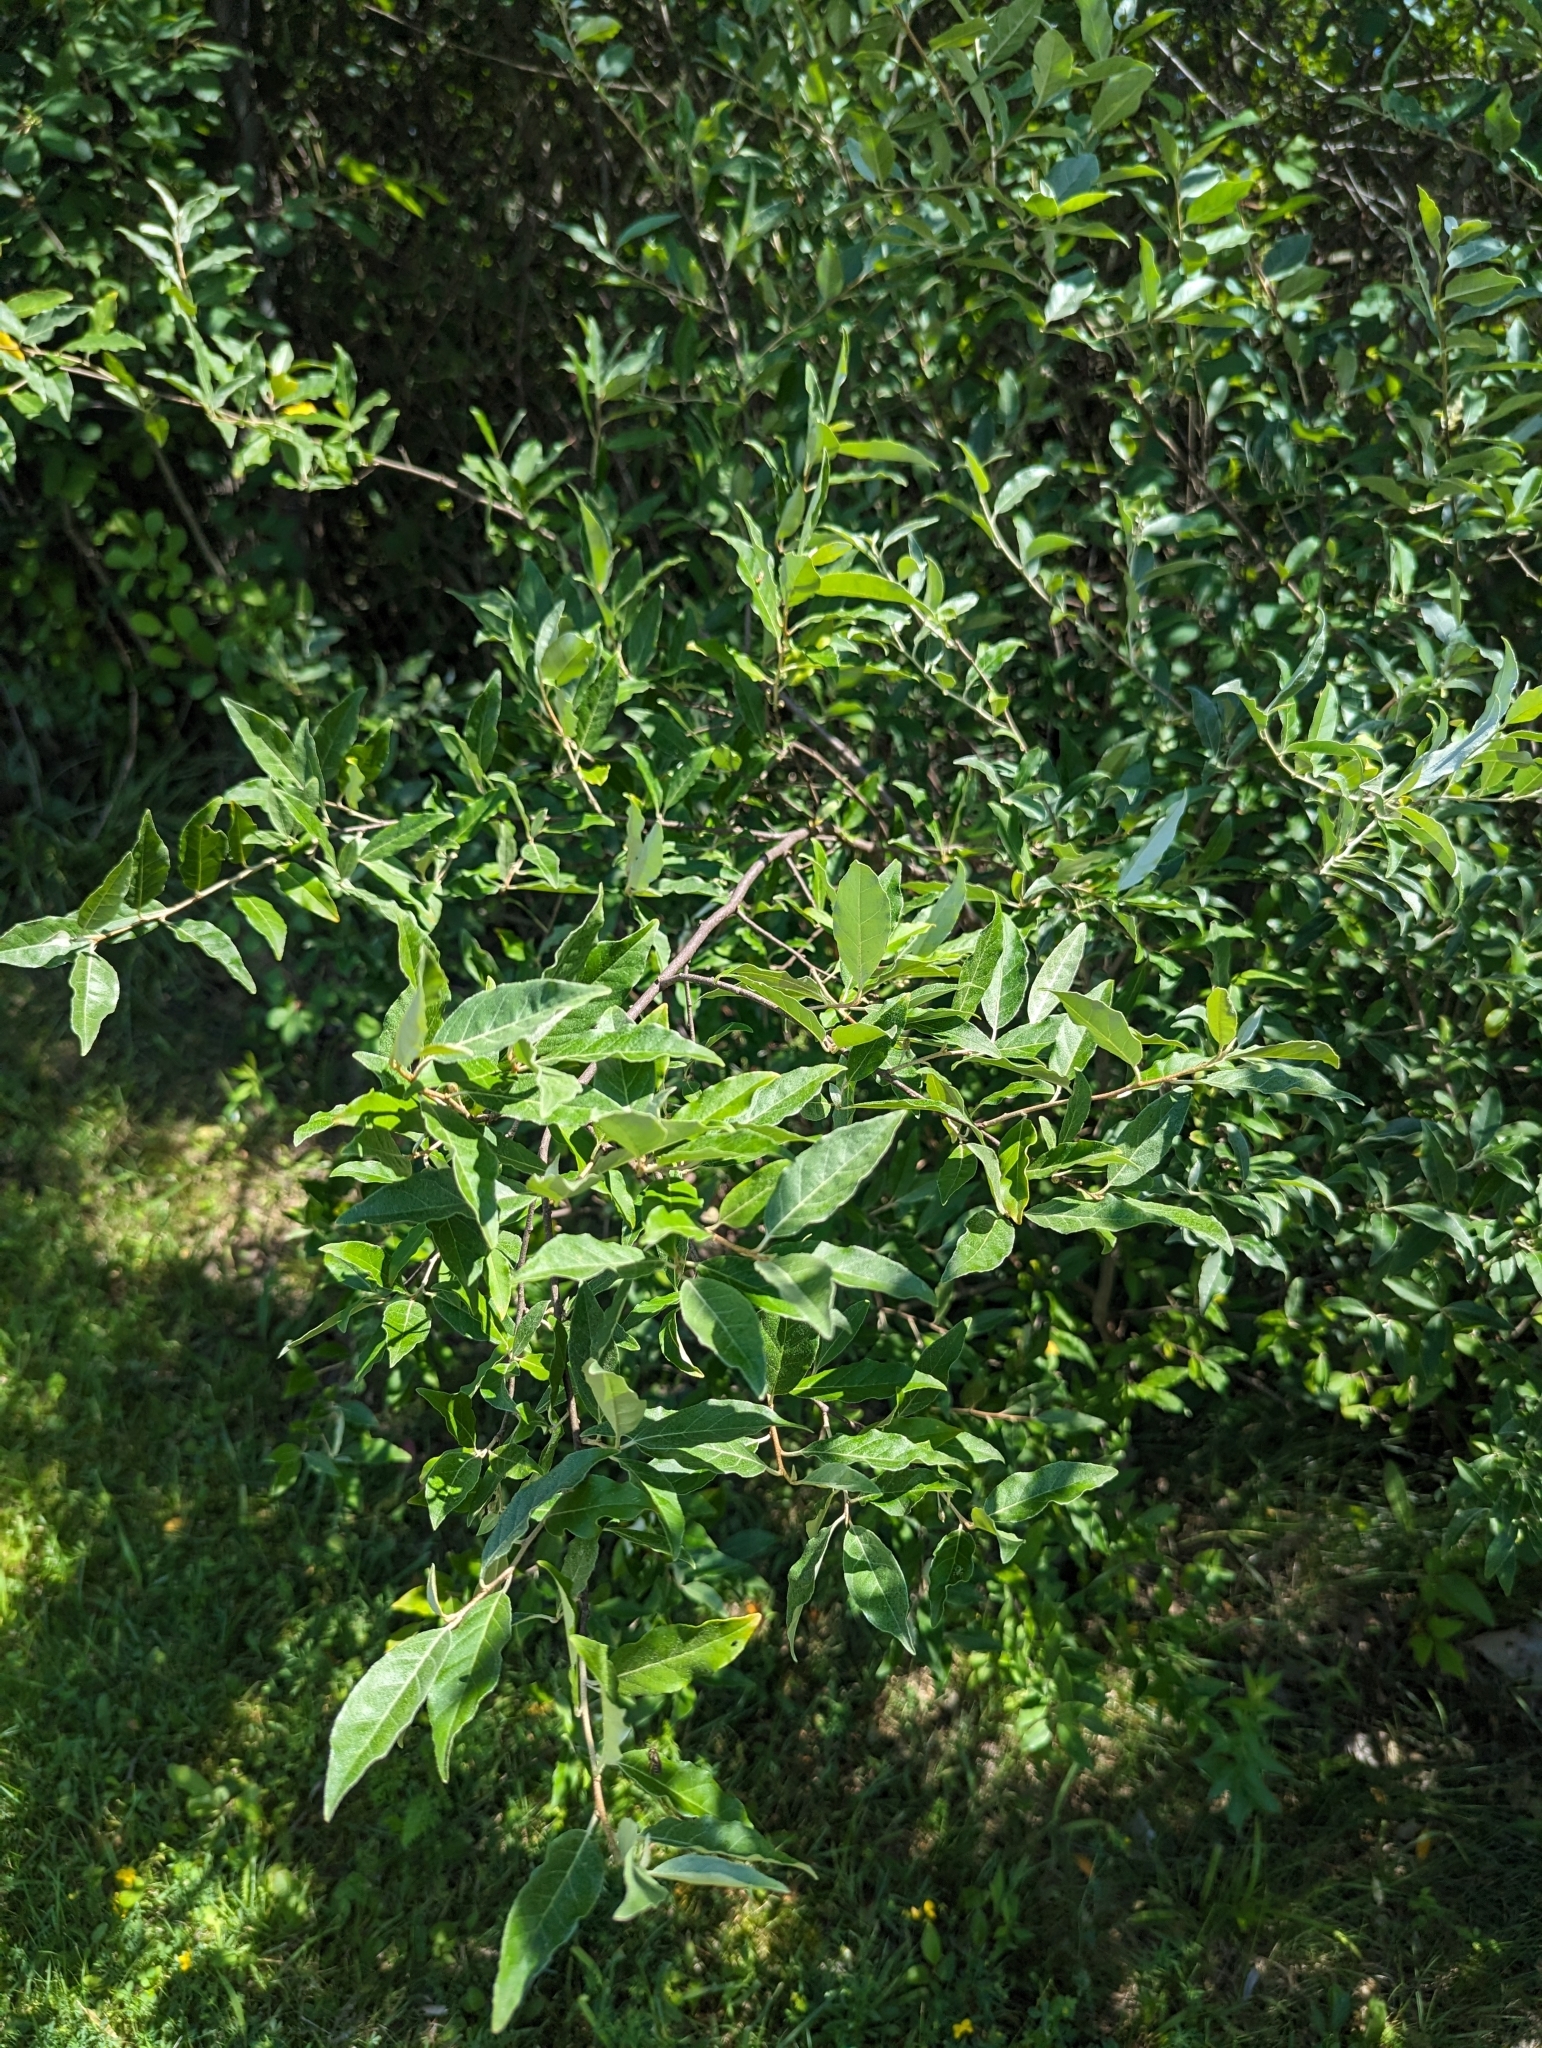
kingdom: Plantae
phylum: Tracheophyta
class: Magnoliopsida
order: Rosales
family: Elaeagnaceae
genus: Elaeagnus
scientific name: Elaeagnus umbellata
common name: Autumn olive
